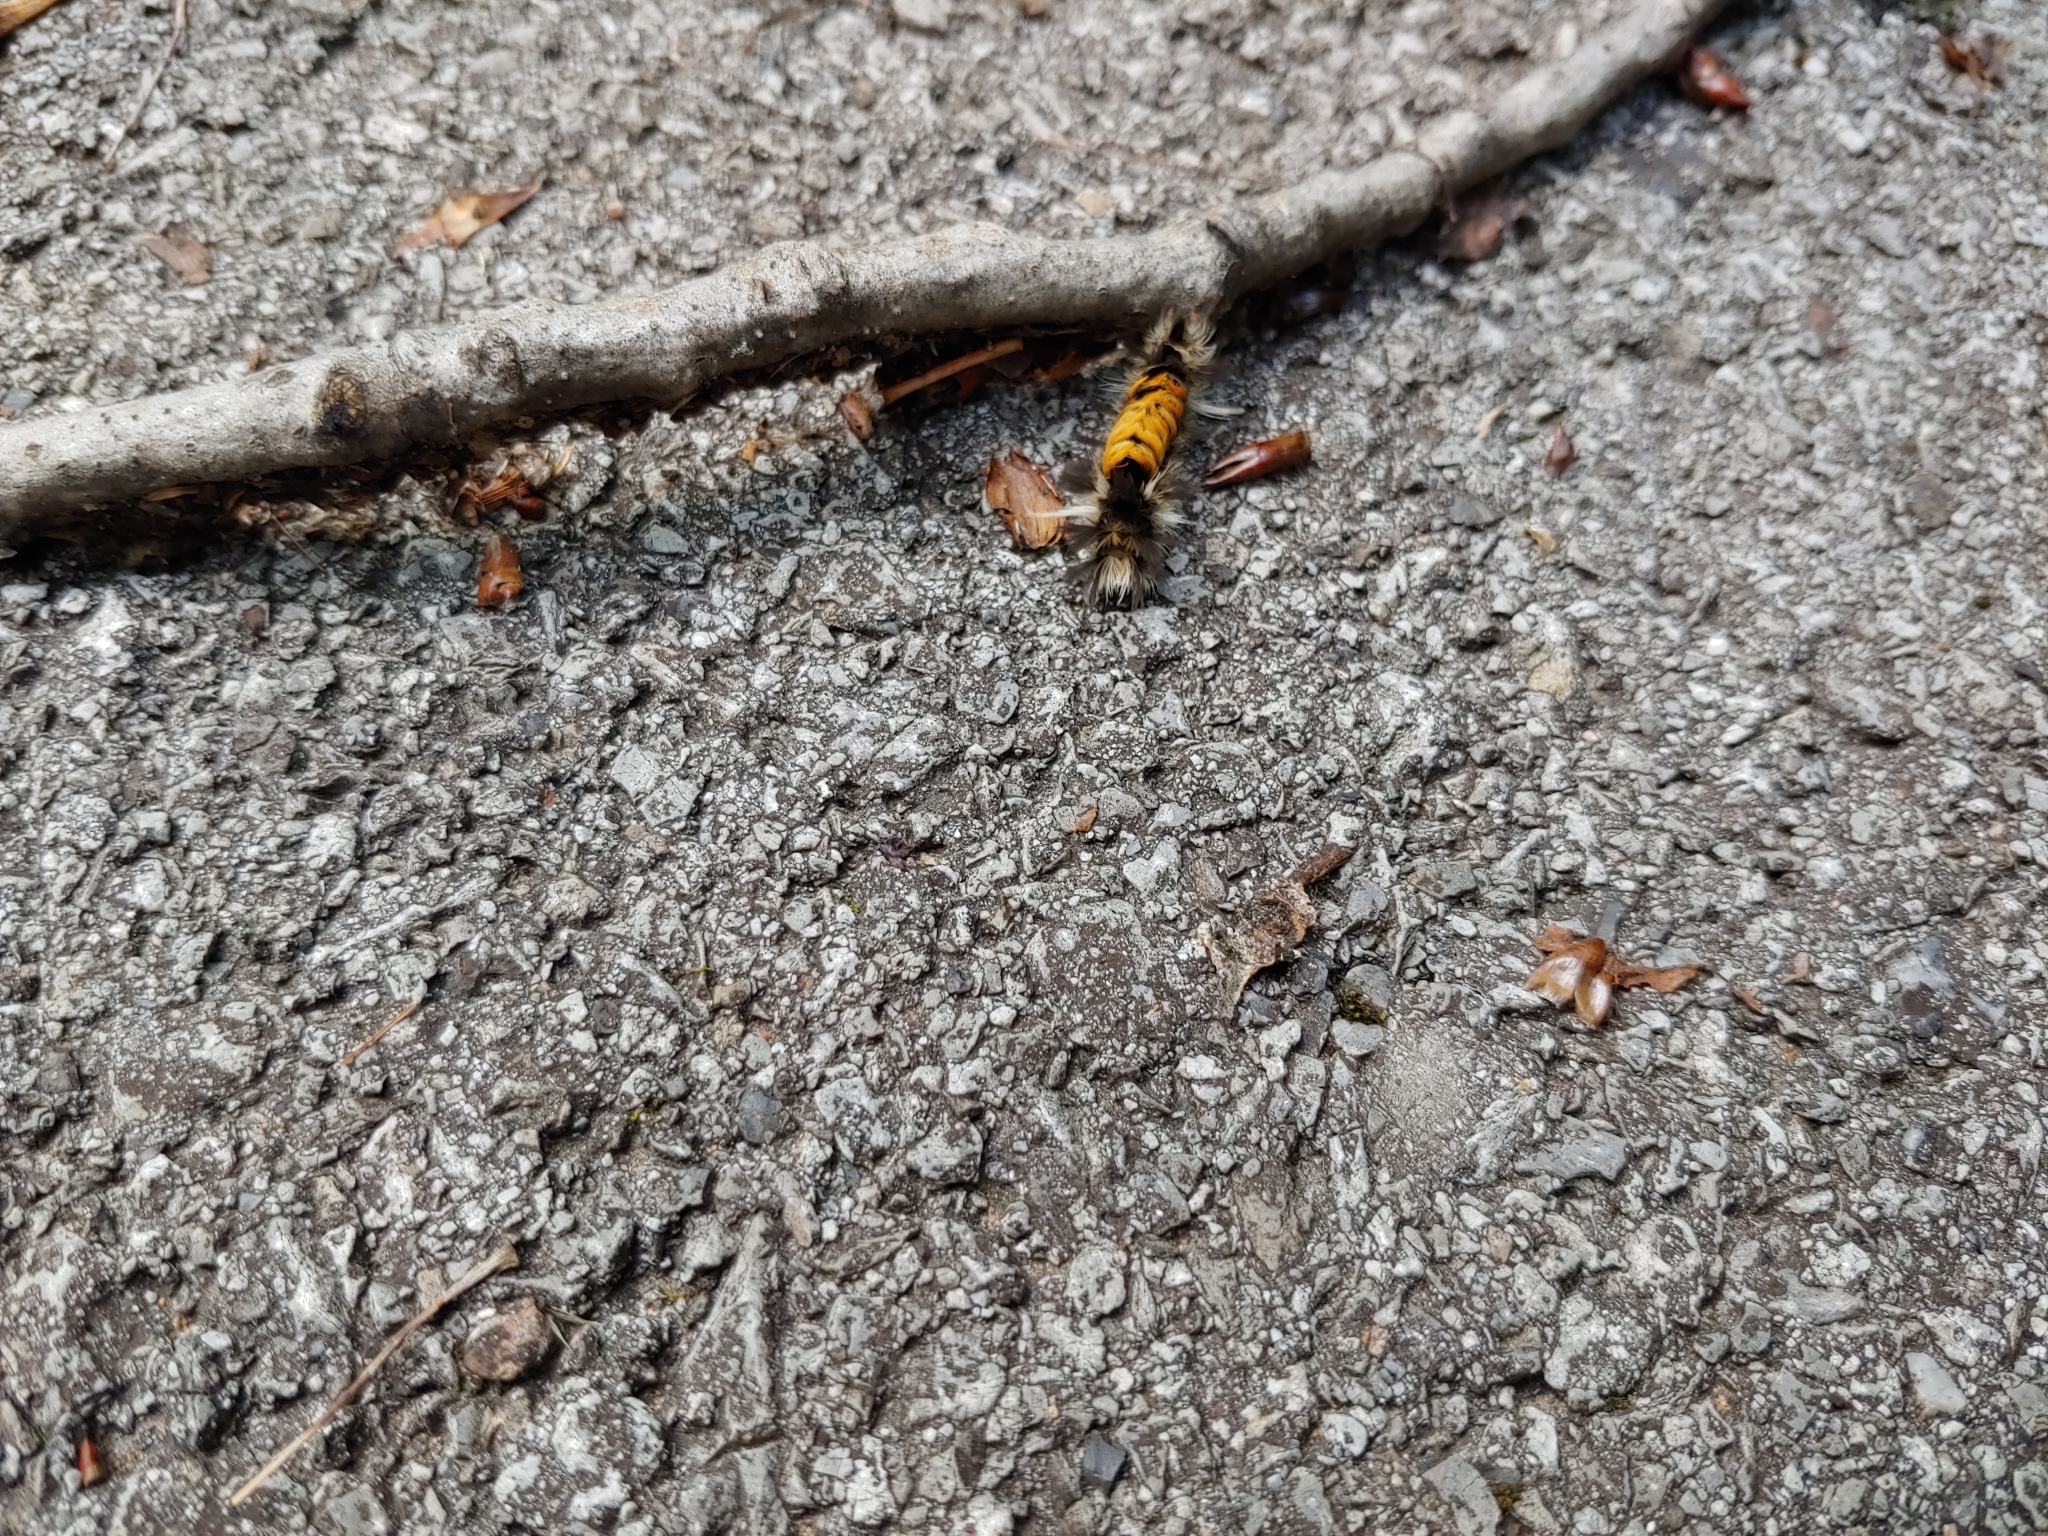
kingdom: Animalia
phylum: Arthropoda
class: Insecta
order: Lepidoptera
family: Erebidae
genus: Euchaetes
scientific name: Euchaetes egle
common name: Milkweed tussock moth
